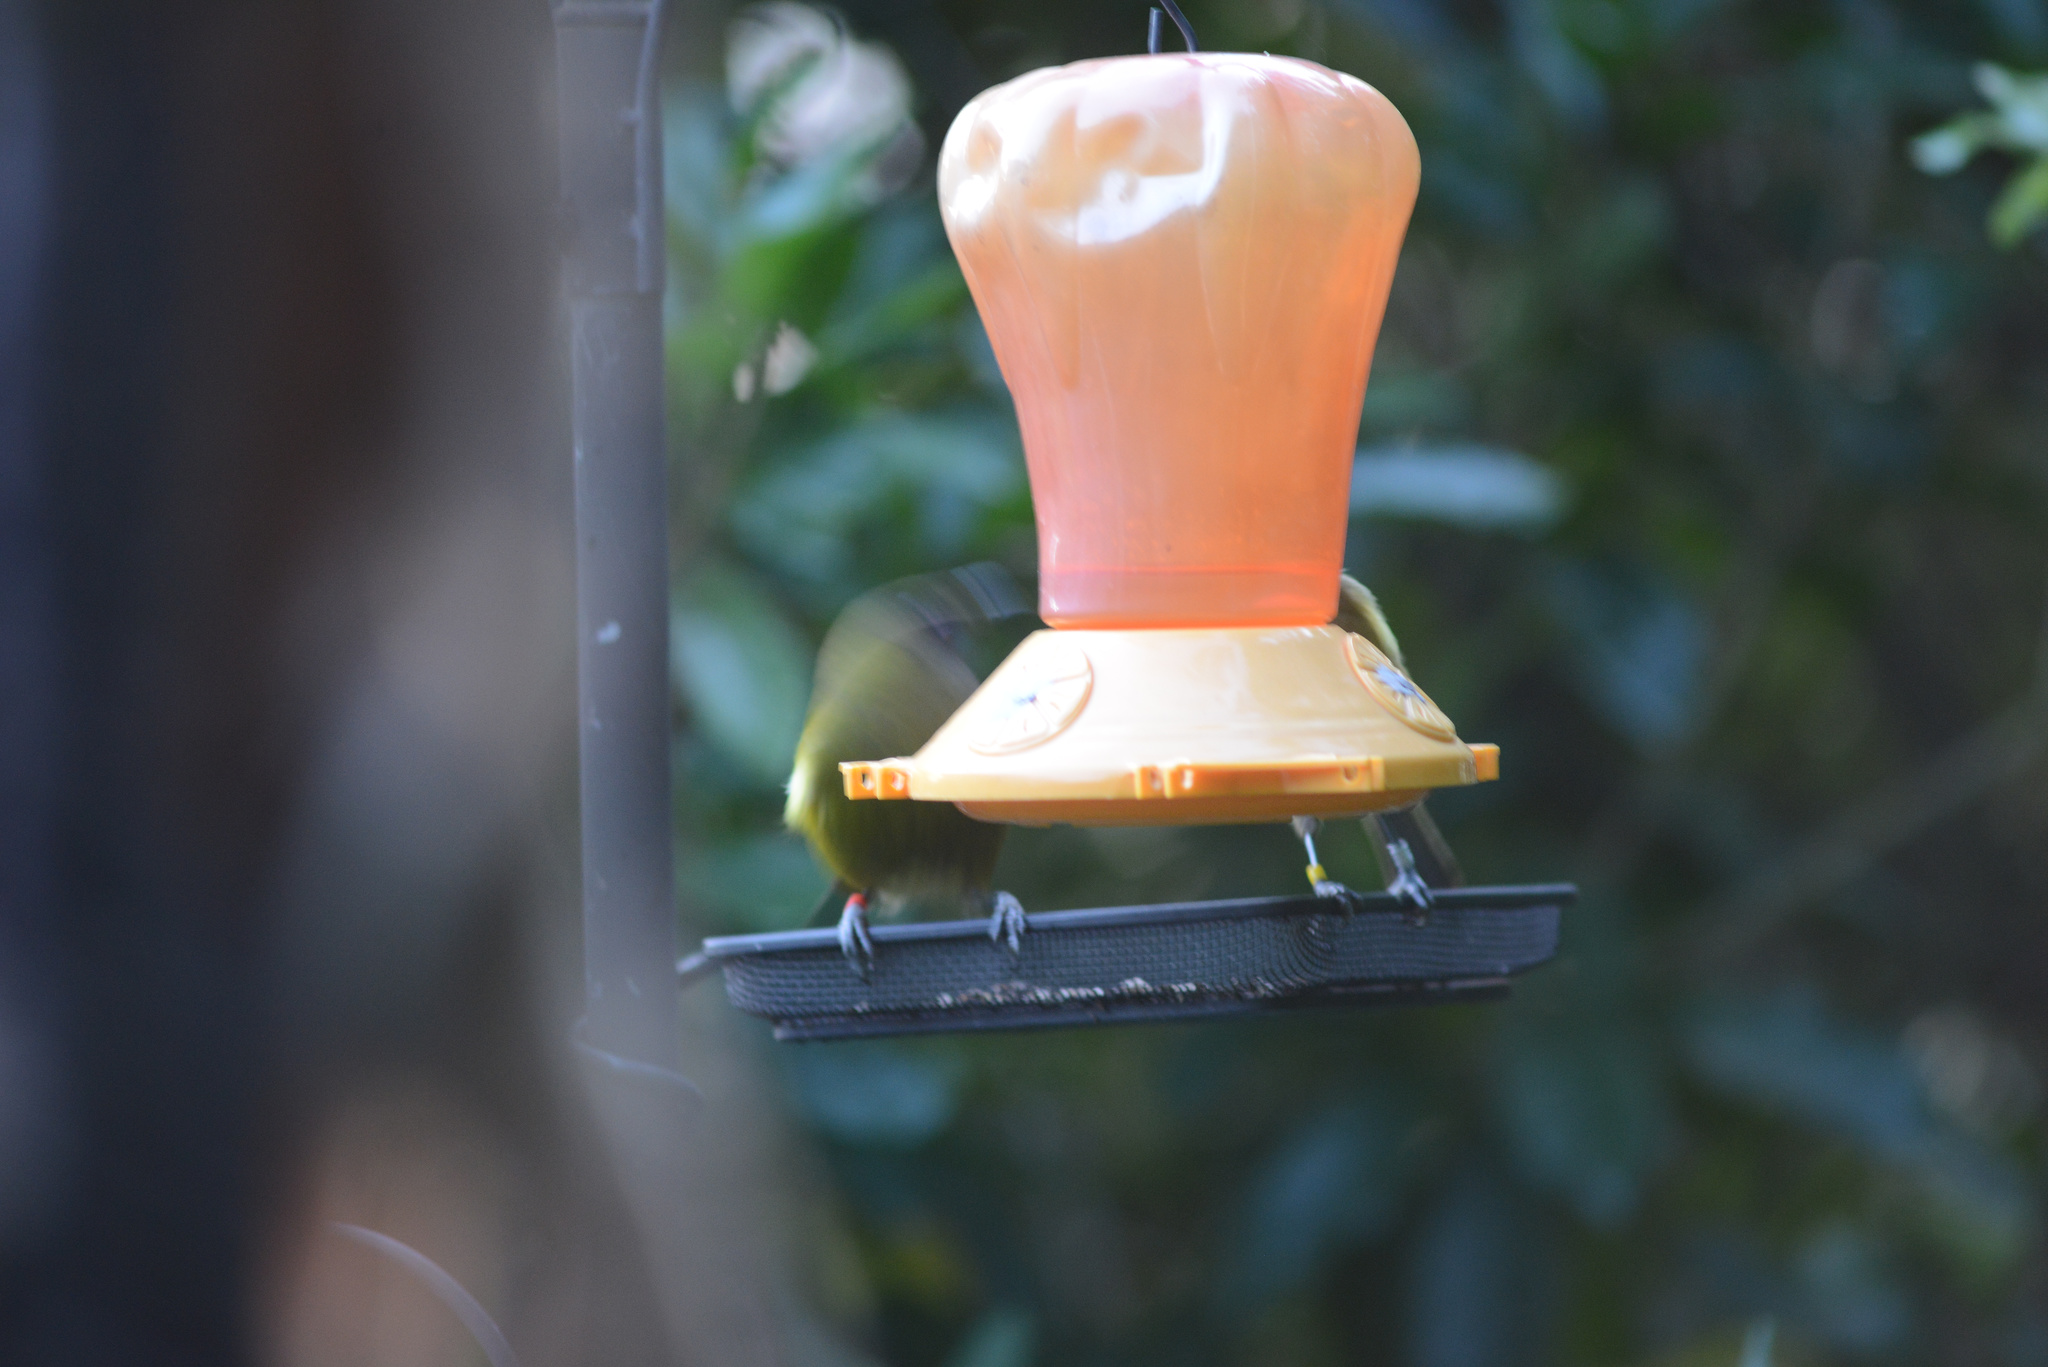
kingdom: Animalia
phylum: Chordata
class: Aves
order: Passeriformes
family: Meliphagidae
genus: Anthornis
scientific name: Anthornis melanura
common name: New zealand bellbird
